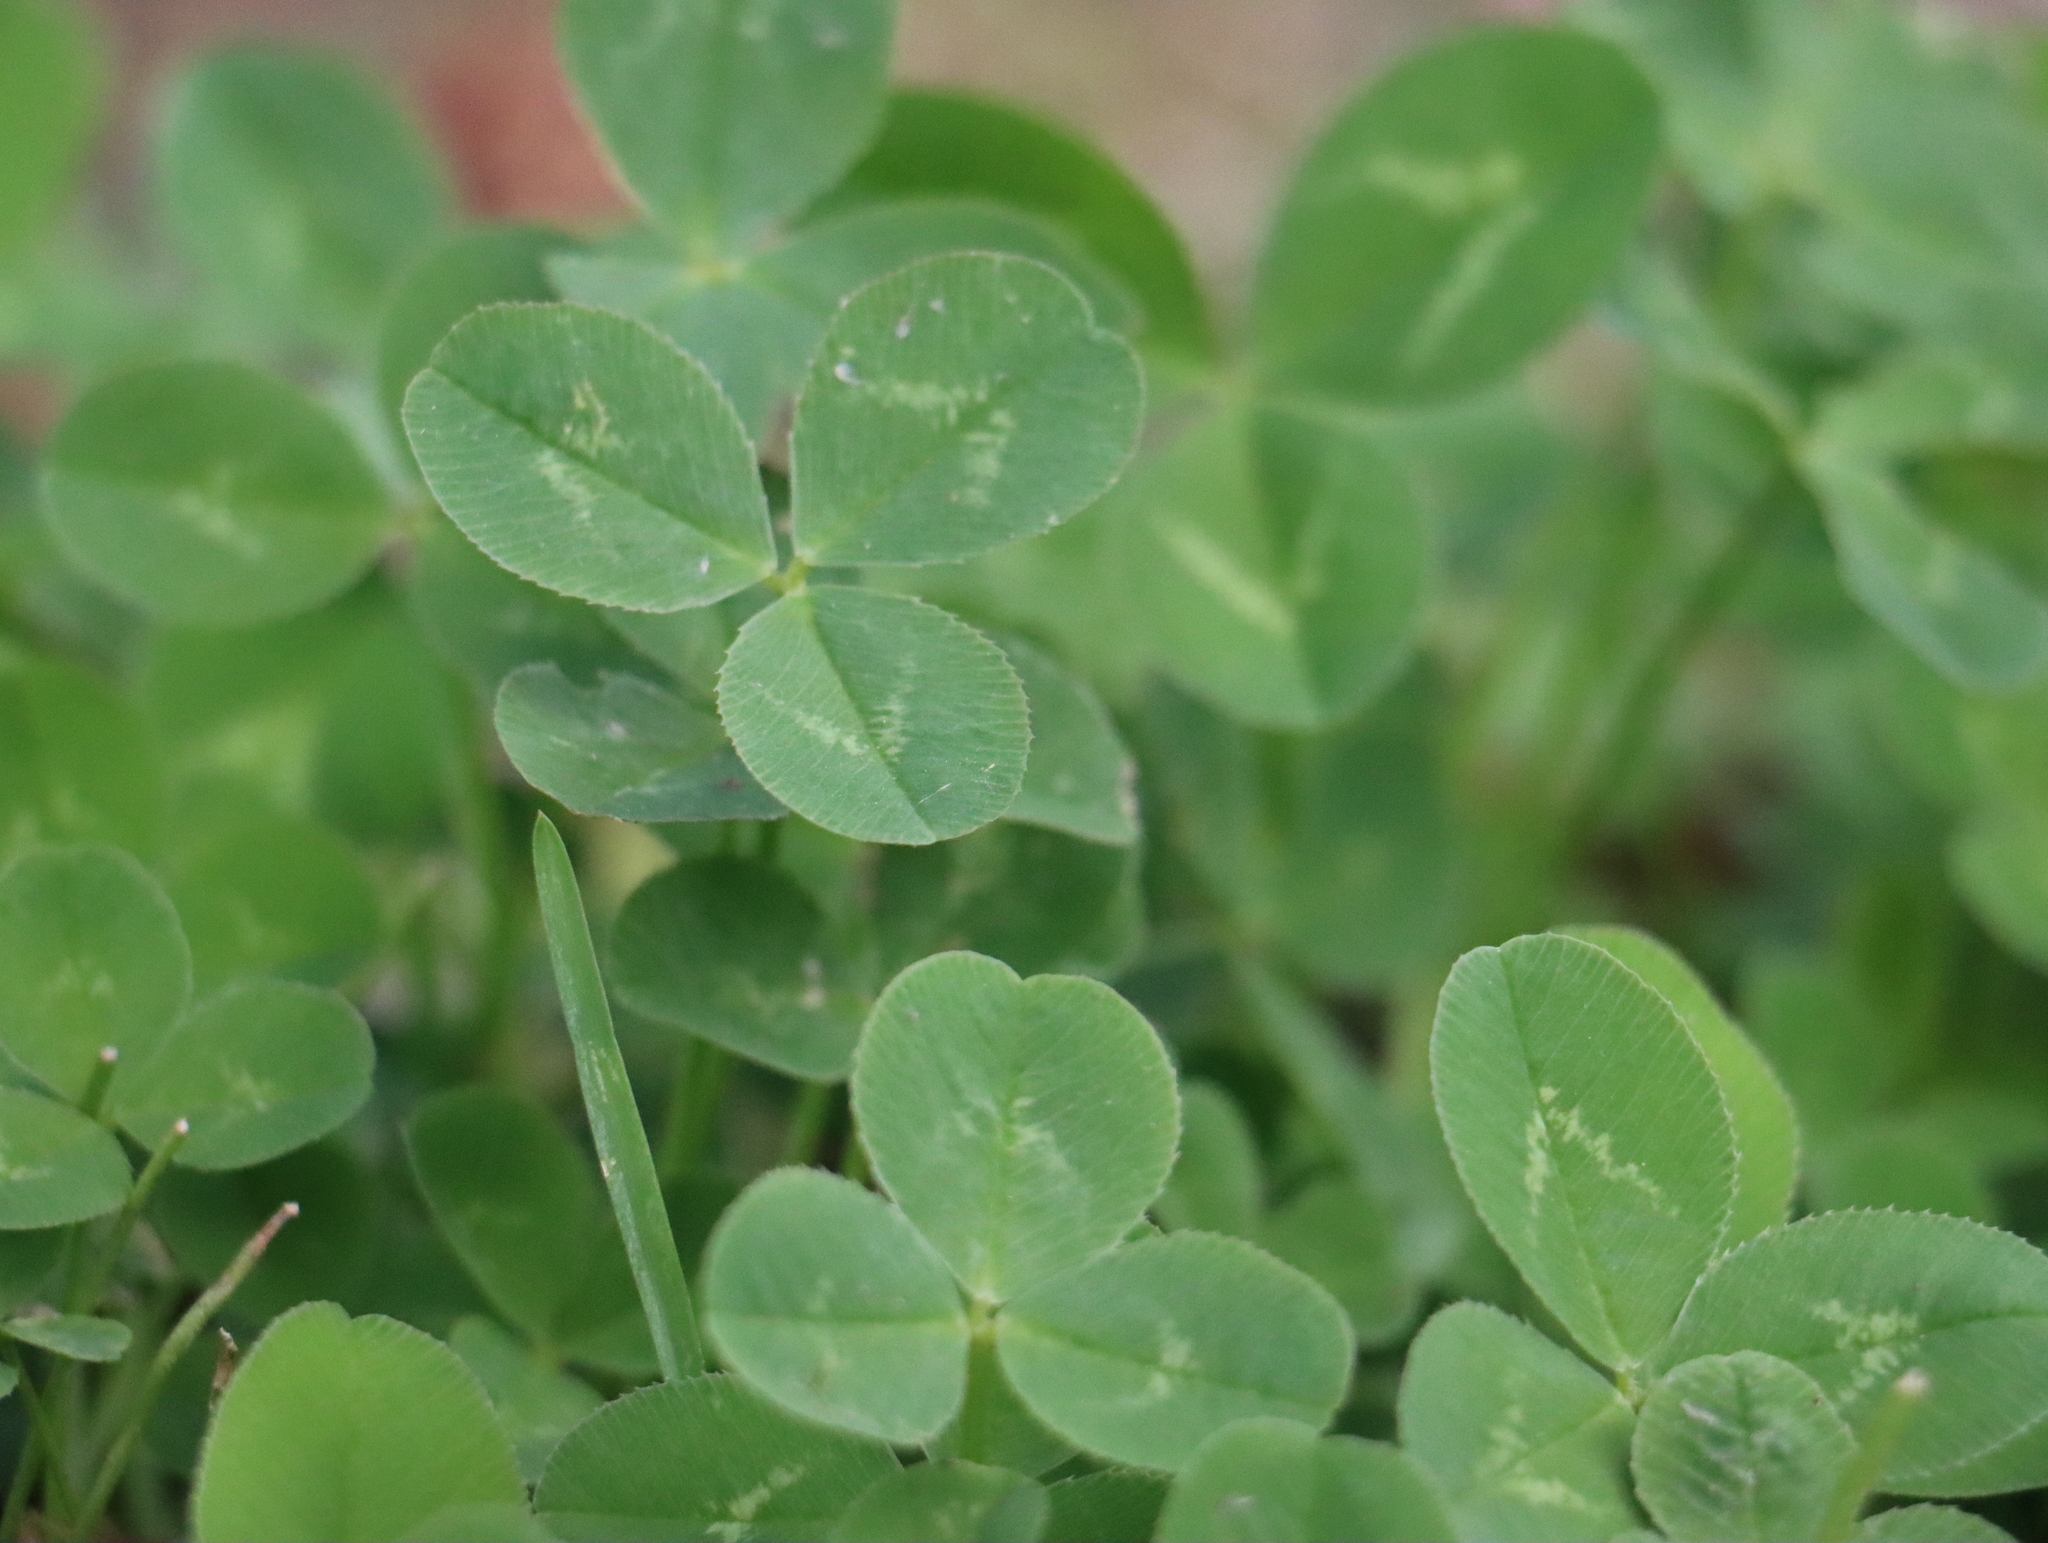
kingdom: Plantae
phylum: Tracheophyta
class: Magnoliopsida
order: Fabales
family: Fabaceae
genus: Trifolium
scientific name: Trifolium repens
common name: White clover
